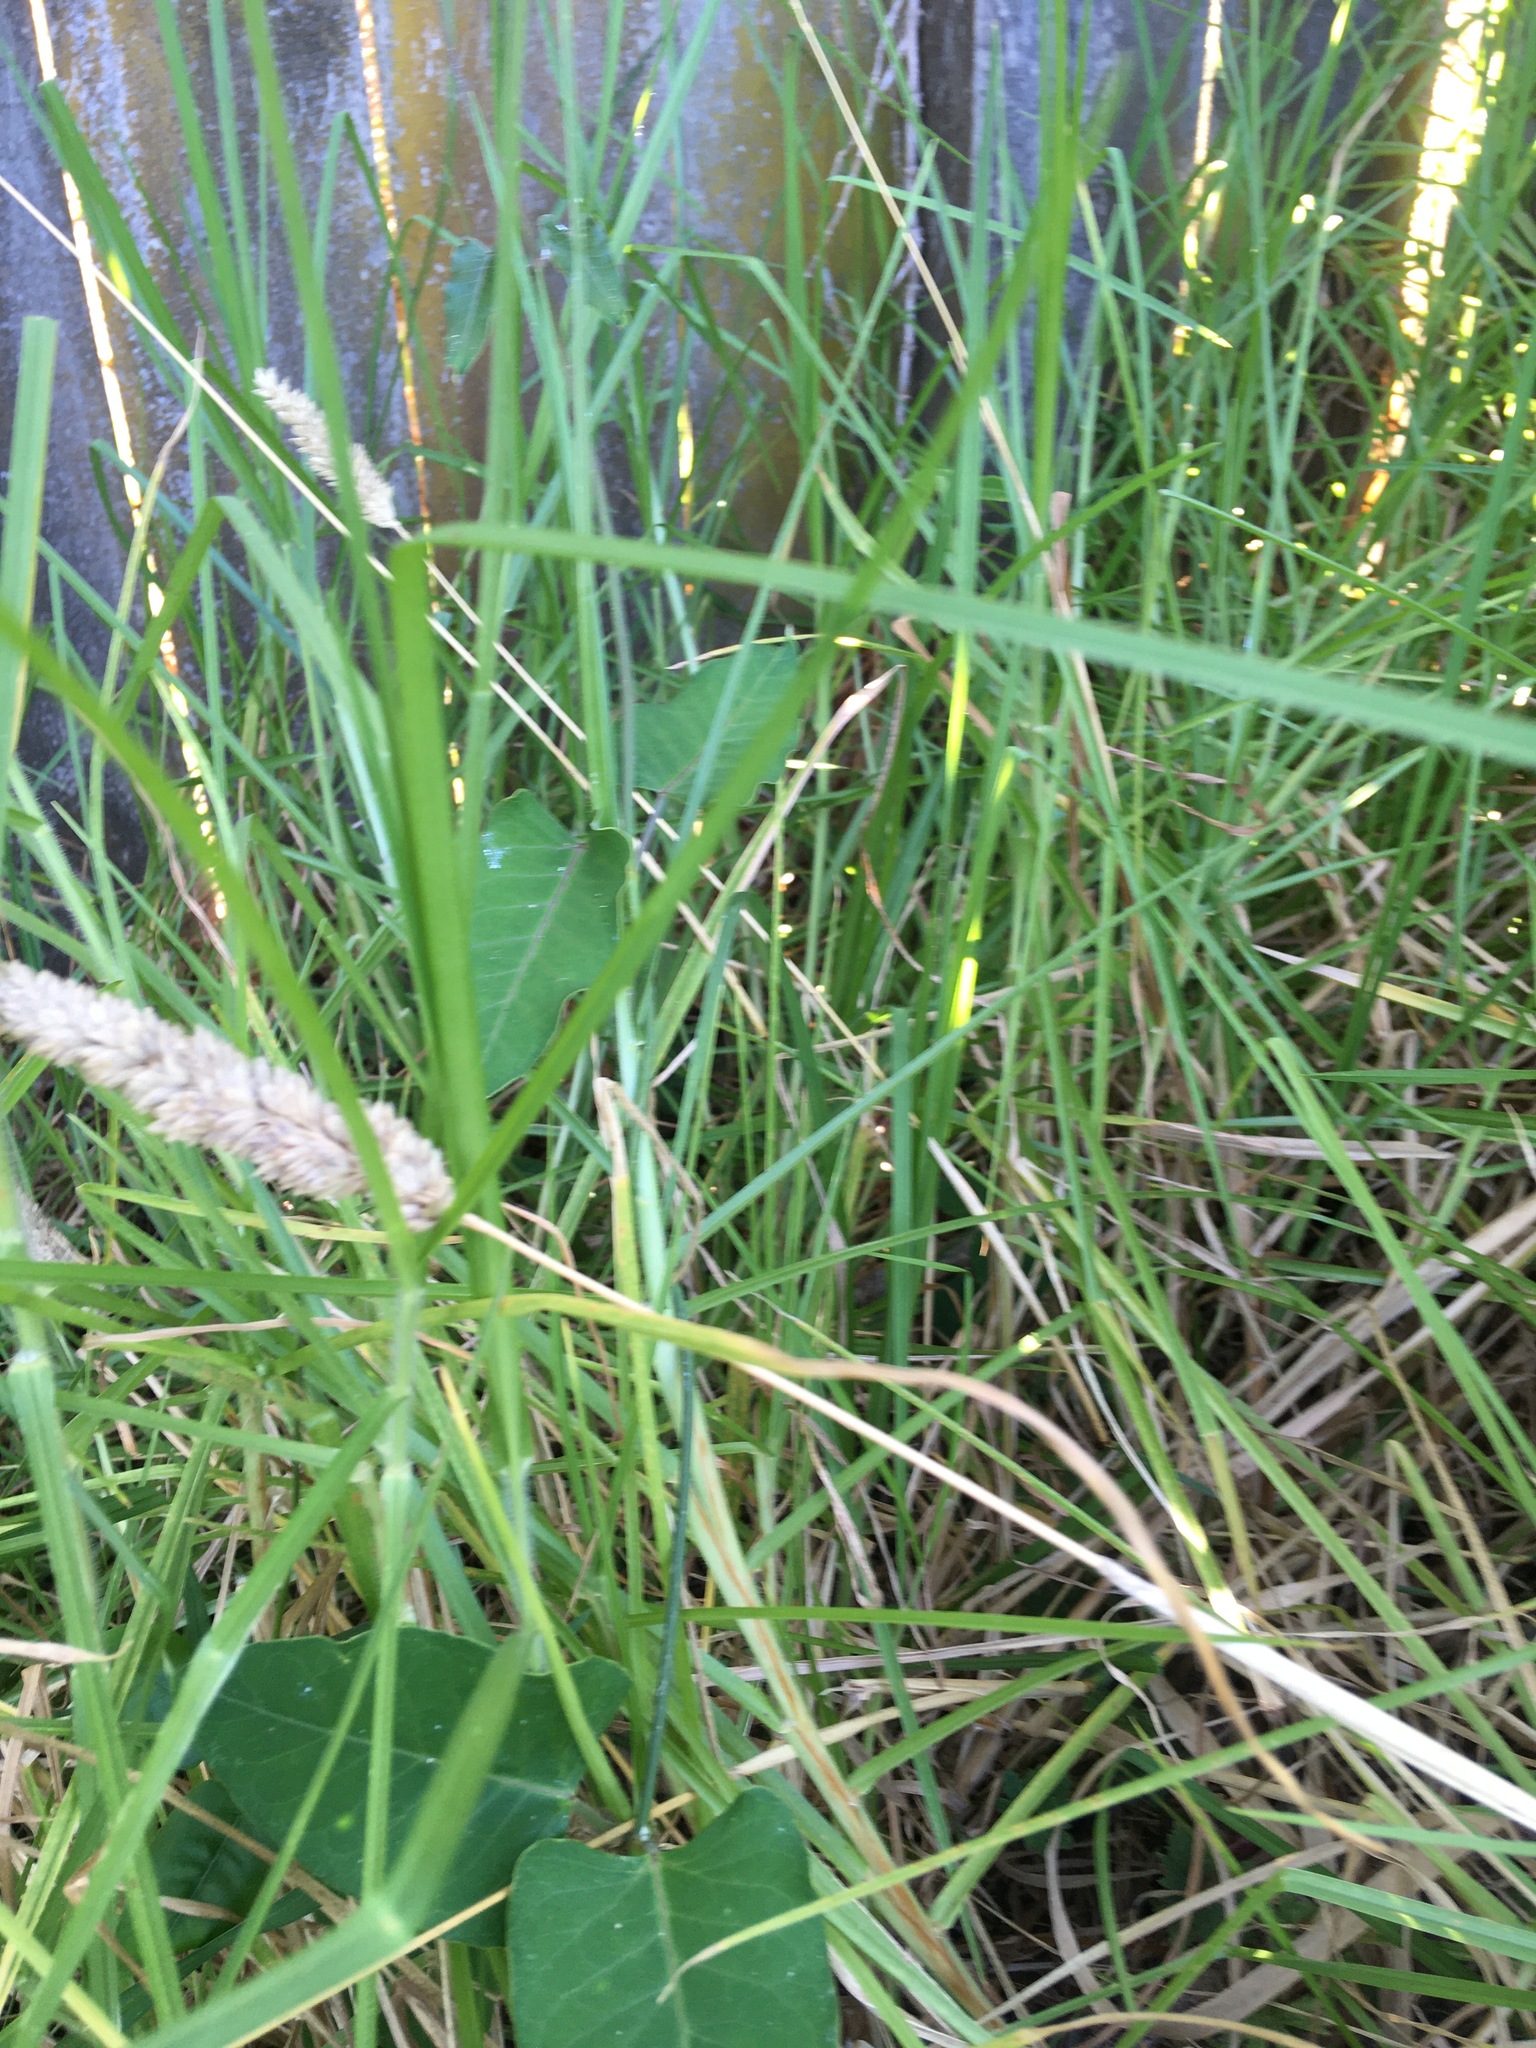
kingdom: Plantae
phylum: Tracheophyta
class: Magnoliopsida
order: Gentianales
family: Apocynaceae
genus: Araujia
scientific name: Araujia sericifera
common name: White bladderflower
